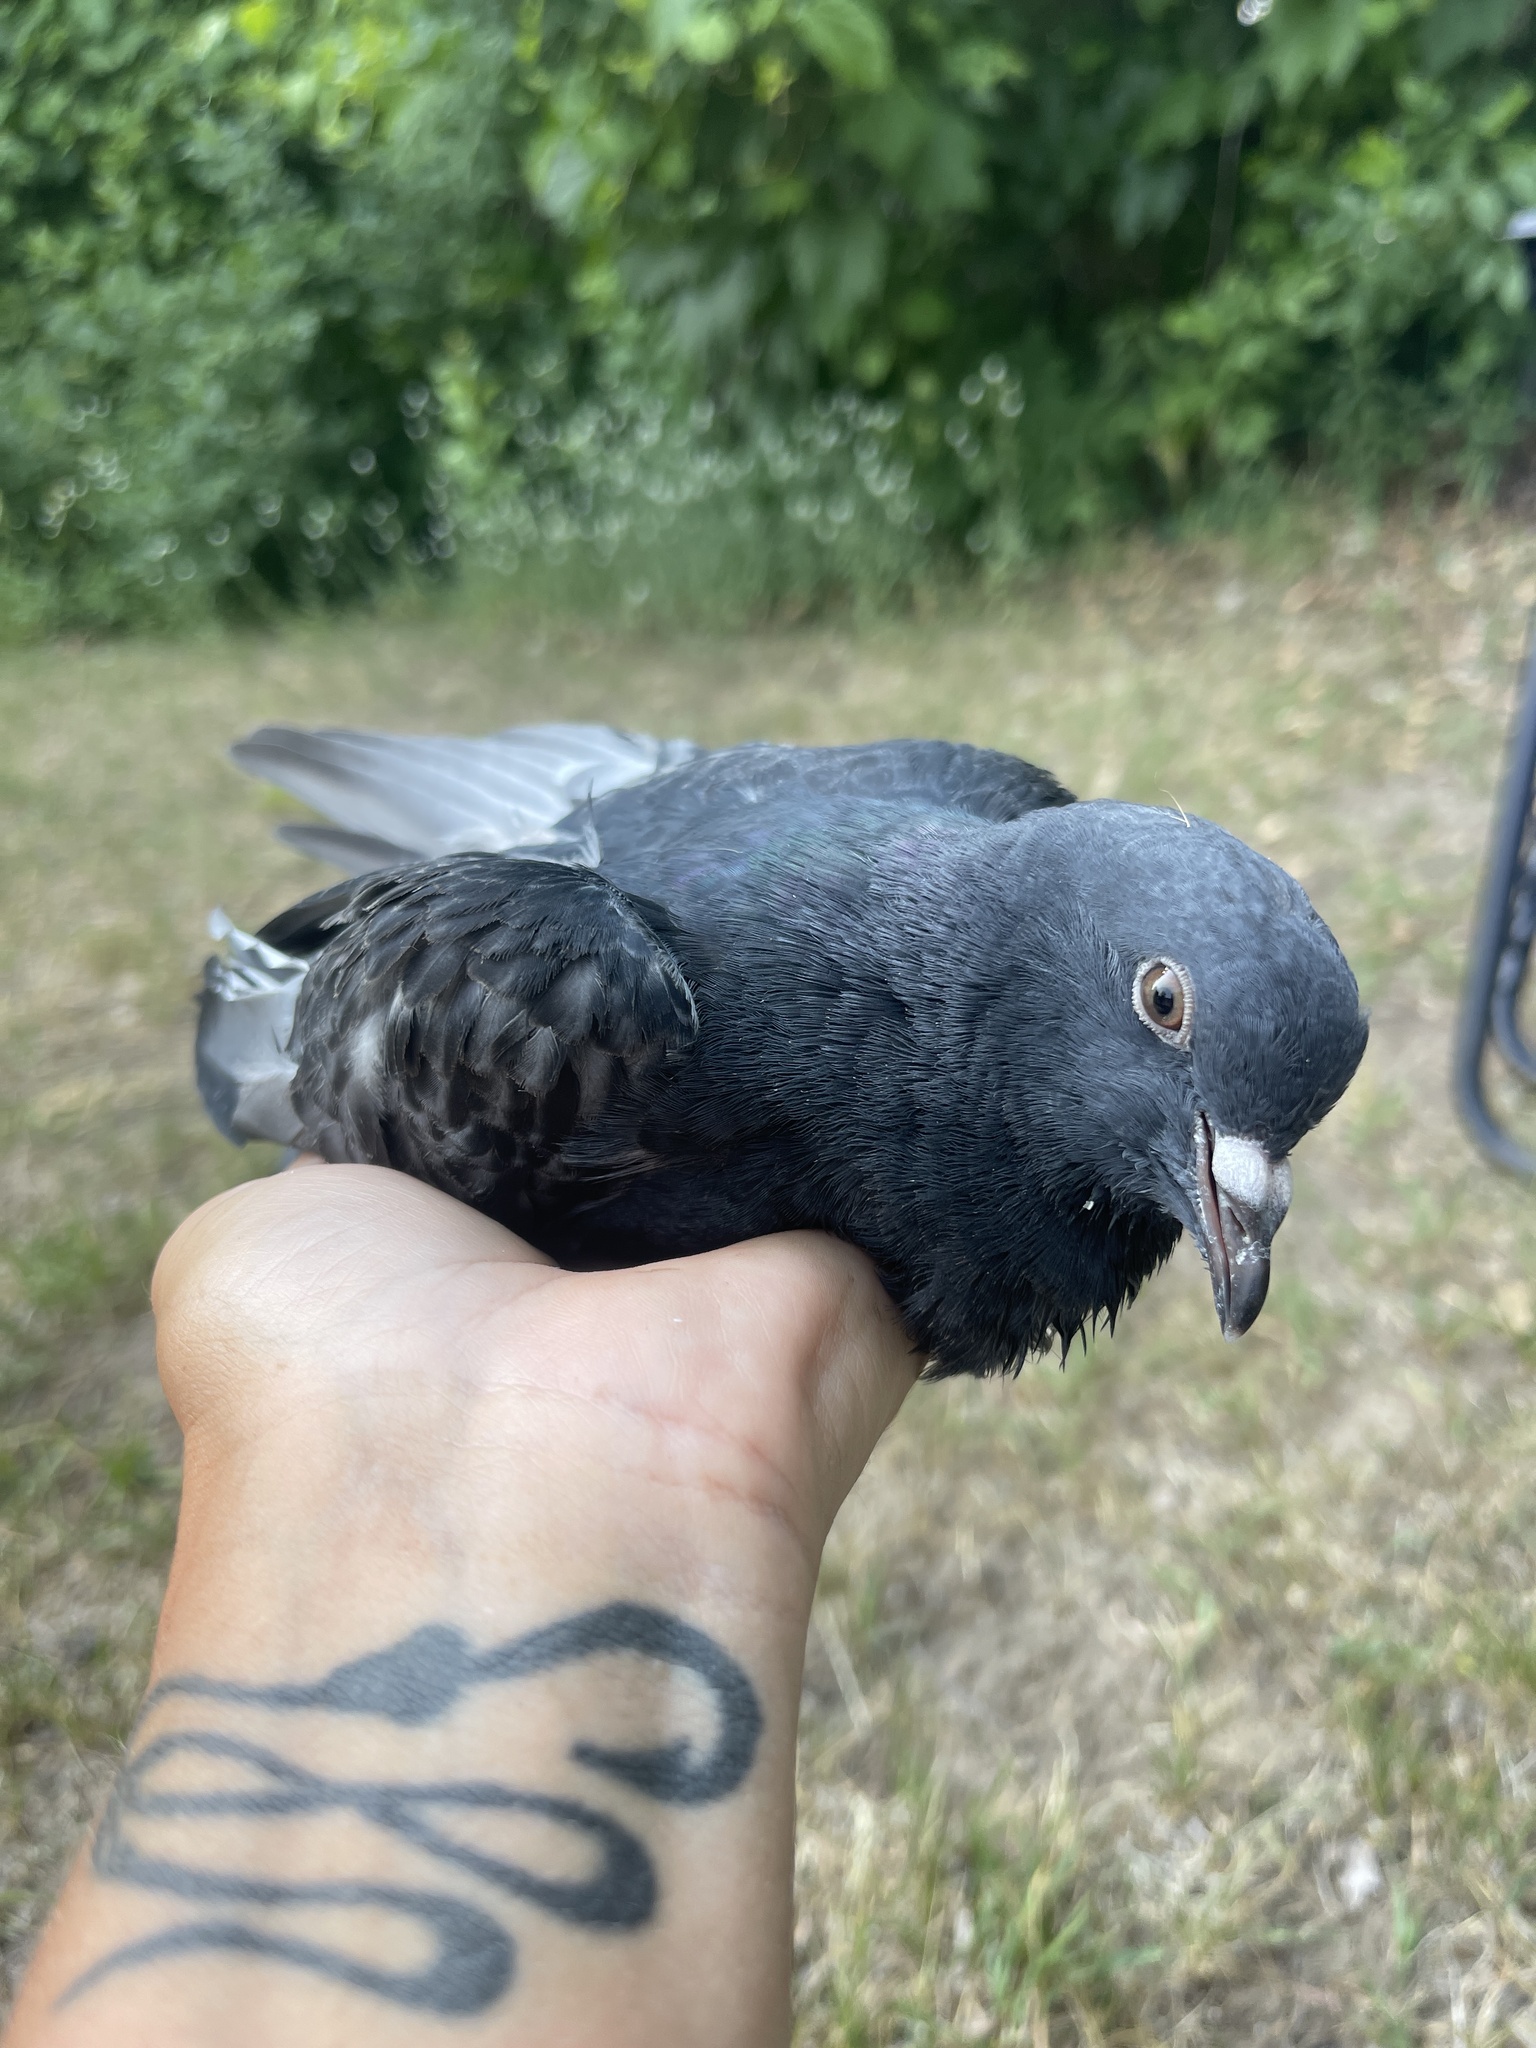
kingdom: Animalia
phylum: Chordata
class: Aves
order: Columbiformes
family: Columbidae
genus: Columba
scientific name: Columba livia
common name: Rock pigeon
